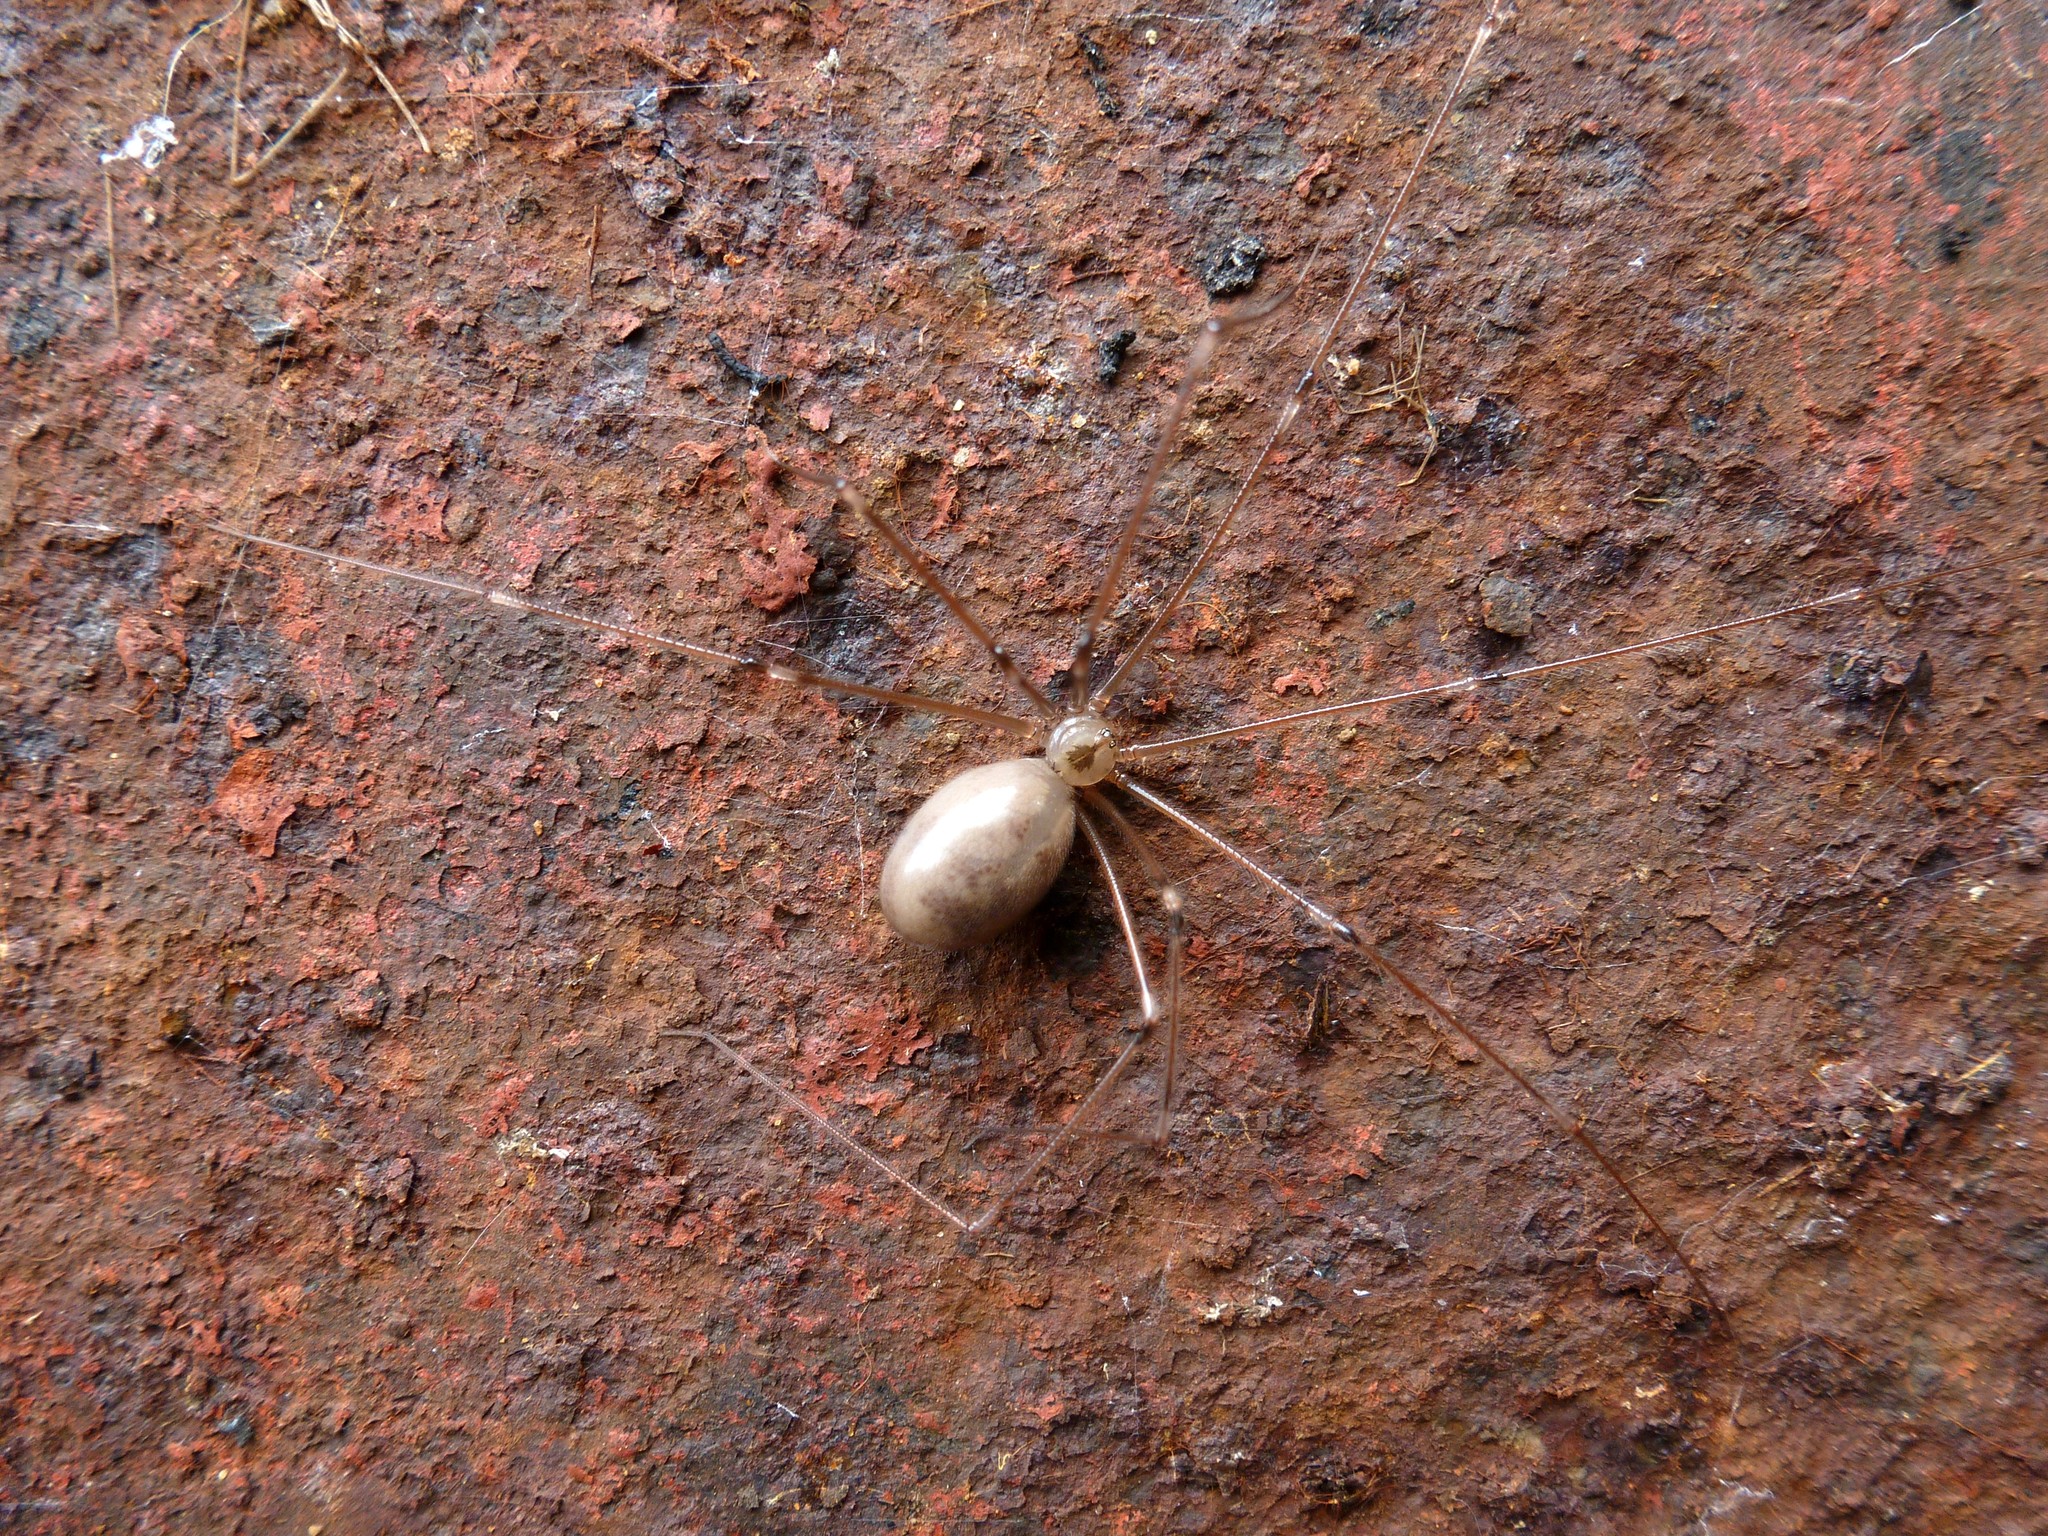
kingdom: Animalia
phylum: Arthropoda
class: Arachnida
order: Araneae
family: Pholcidae
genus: Pholcus
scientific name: Pholcus phalangioides
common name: Longbodied cellar spider
